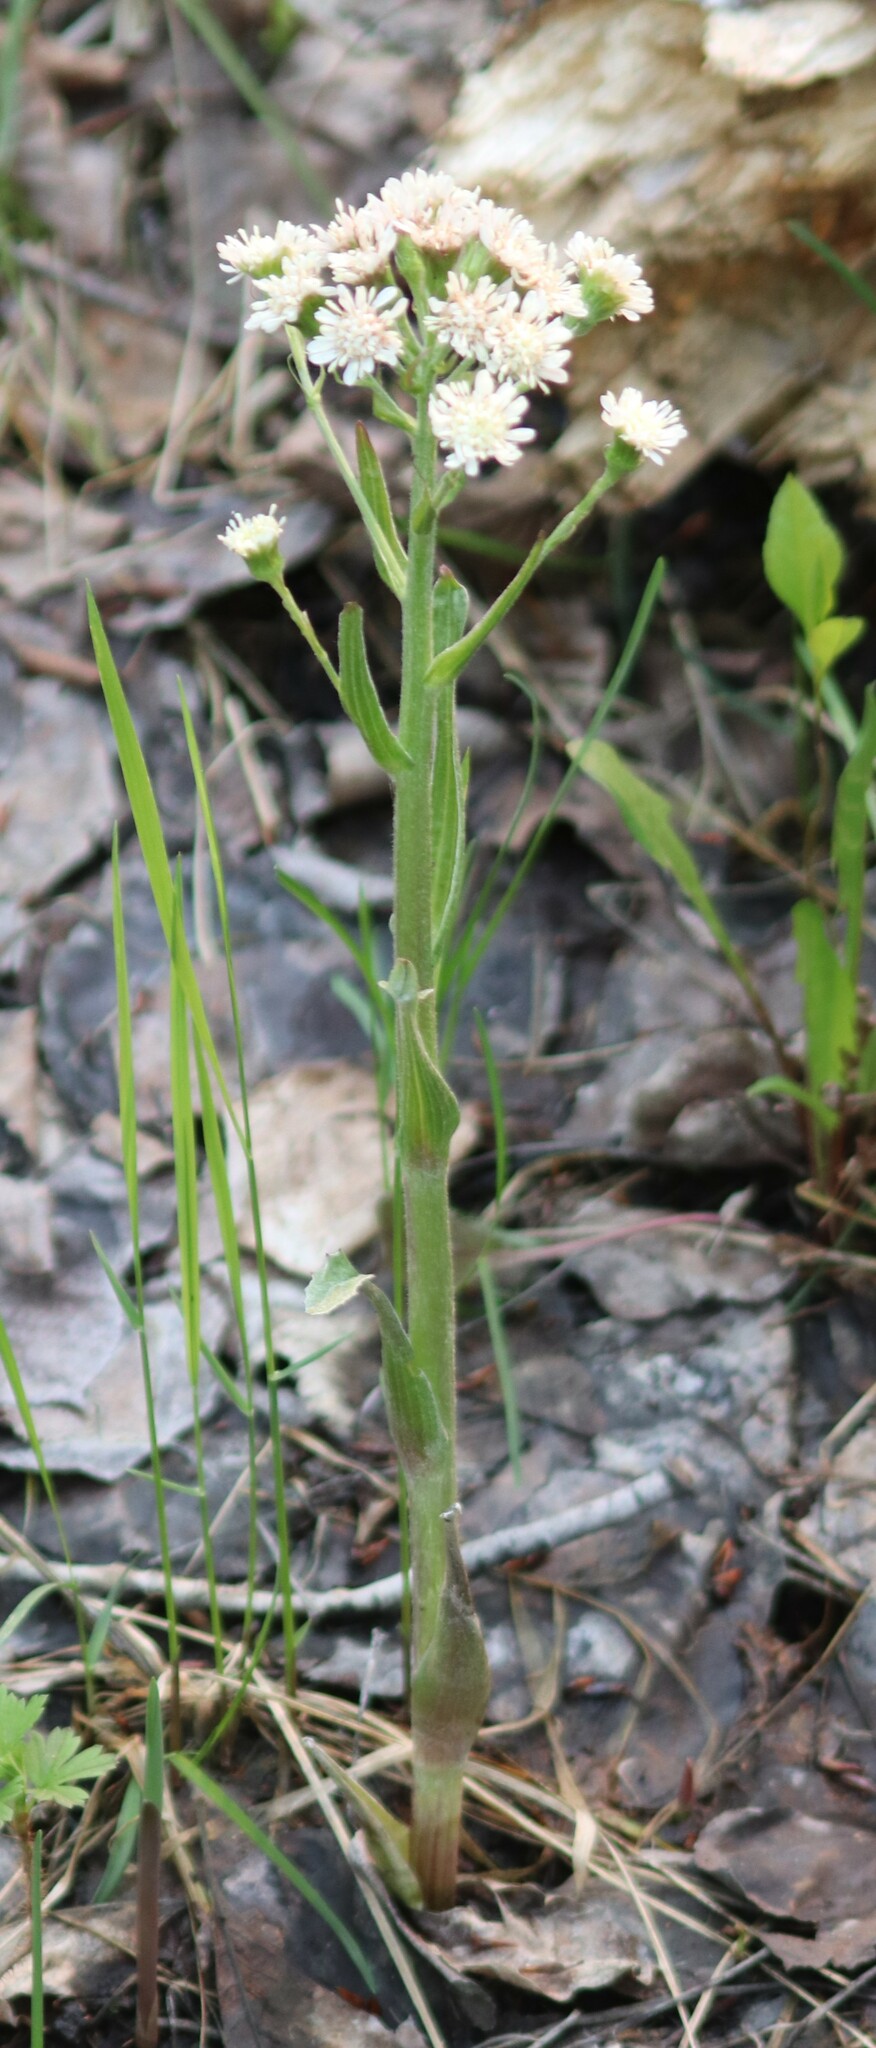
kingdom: Plantae
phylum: Tracheophyta
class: Magnoliopsida
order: Asterales
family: Asteraceae
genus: Petasites
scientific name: Petasites frigidus
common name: Arctic butterbur
